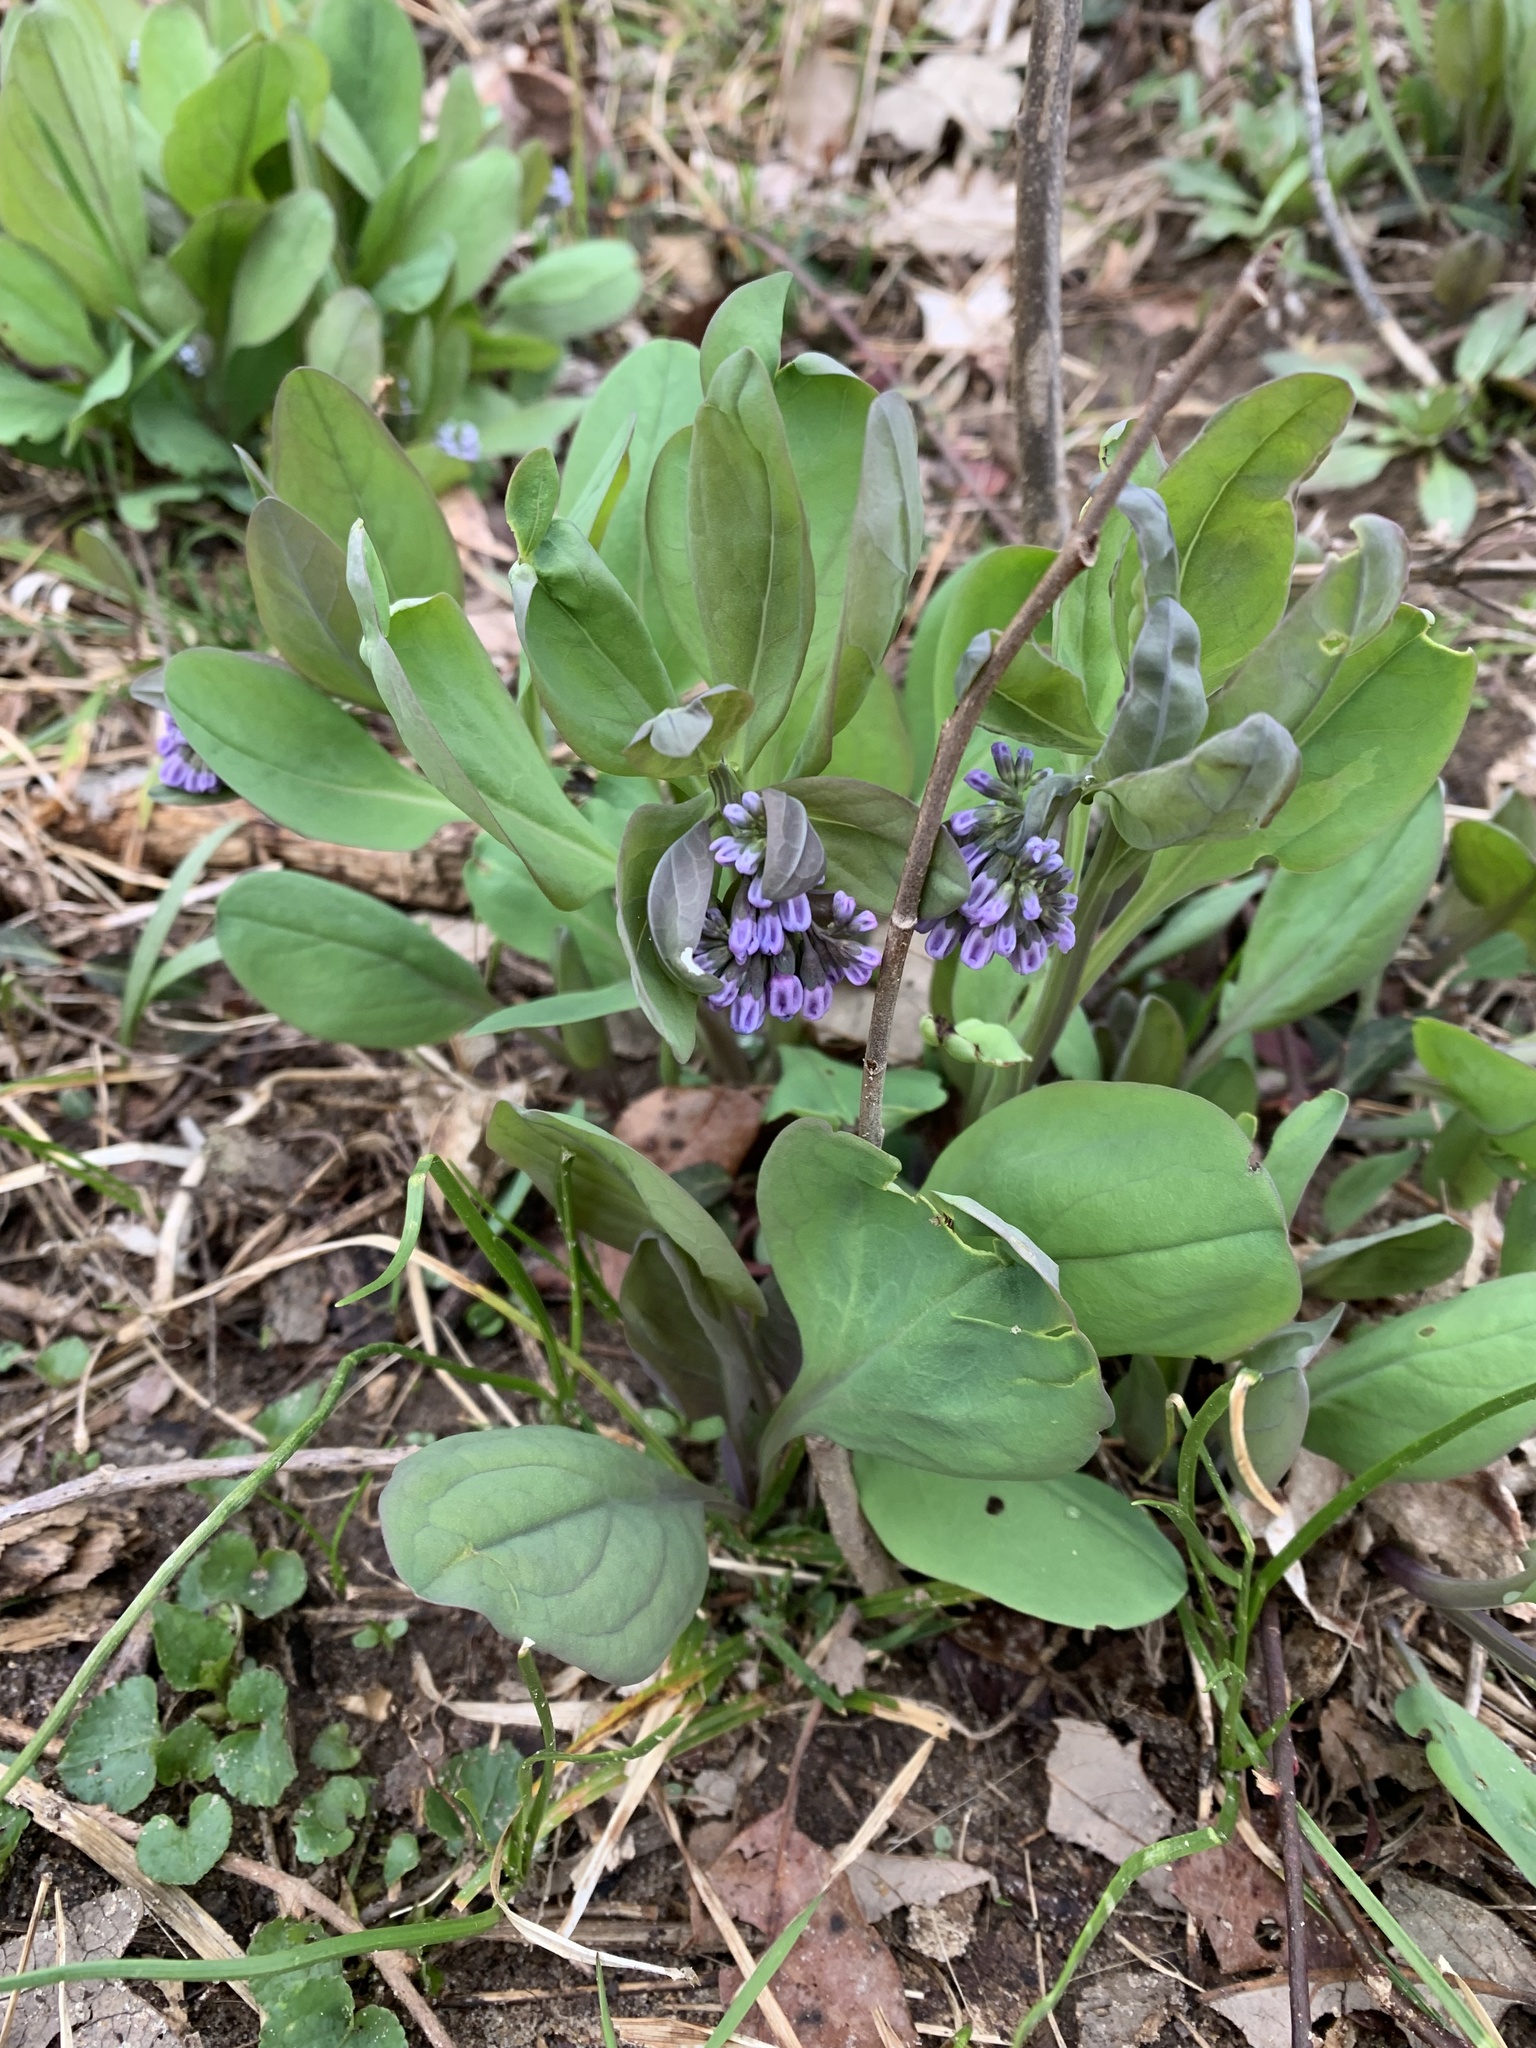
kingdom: Plantae
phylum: Tracheophyta
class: Magnoliopsida
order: Boraginales
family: Boraginaceae
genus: Mertensia
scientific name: Mertensia virginica
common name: Virginia bluebells
